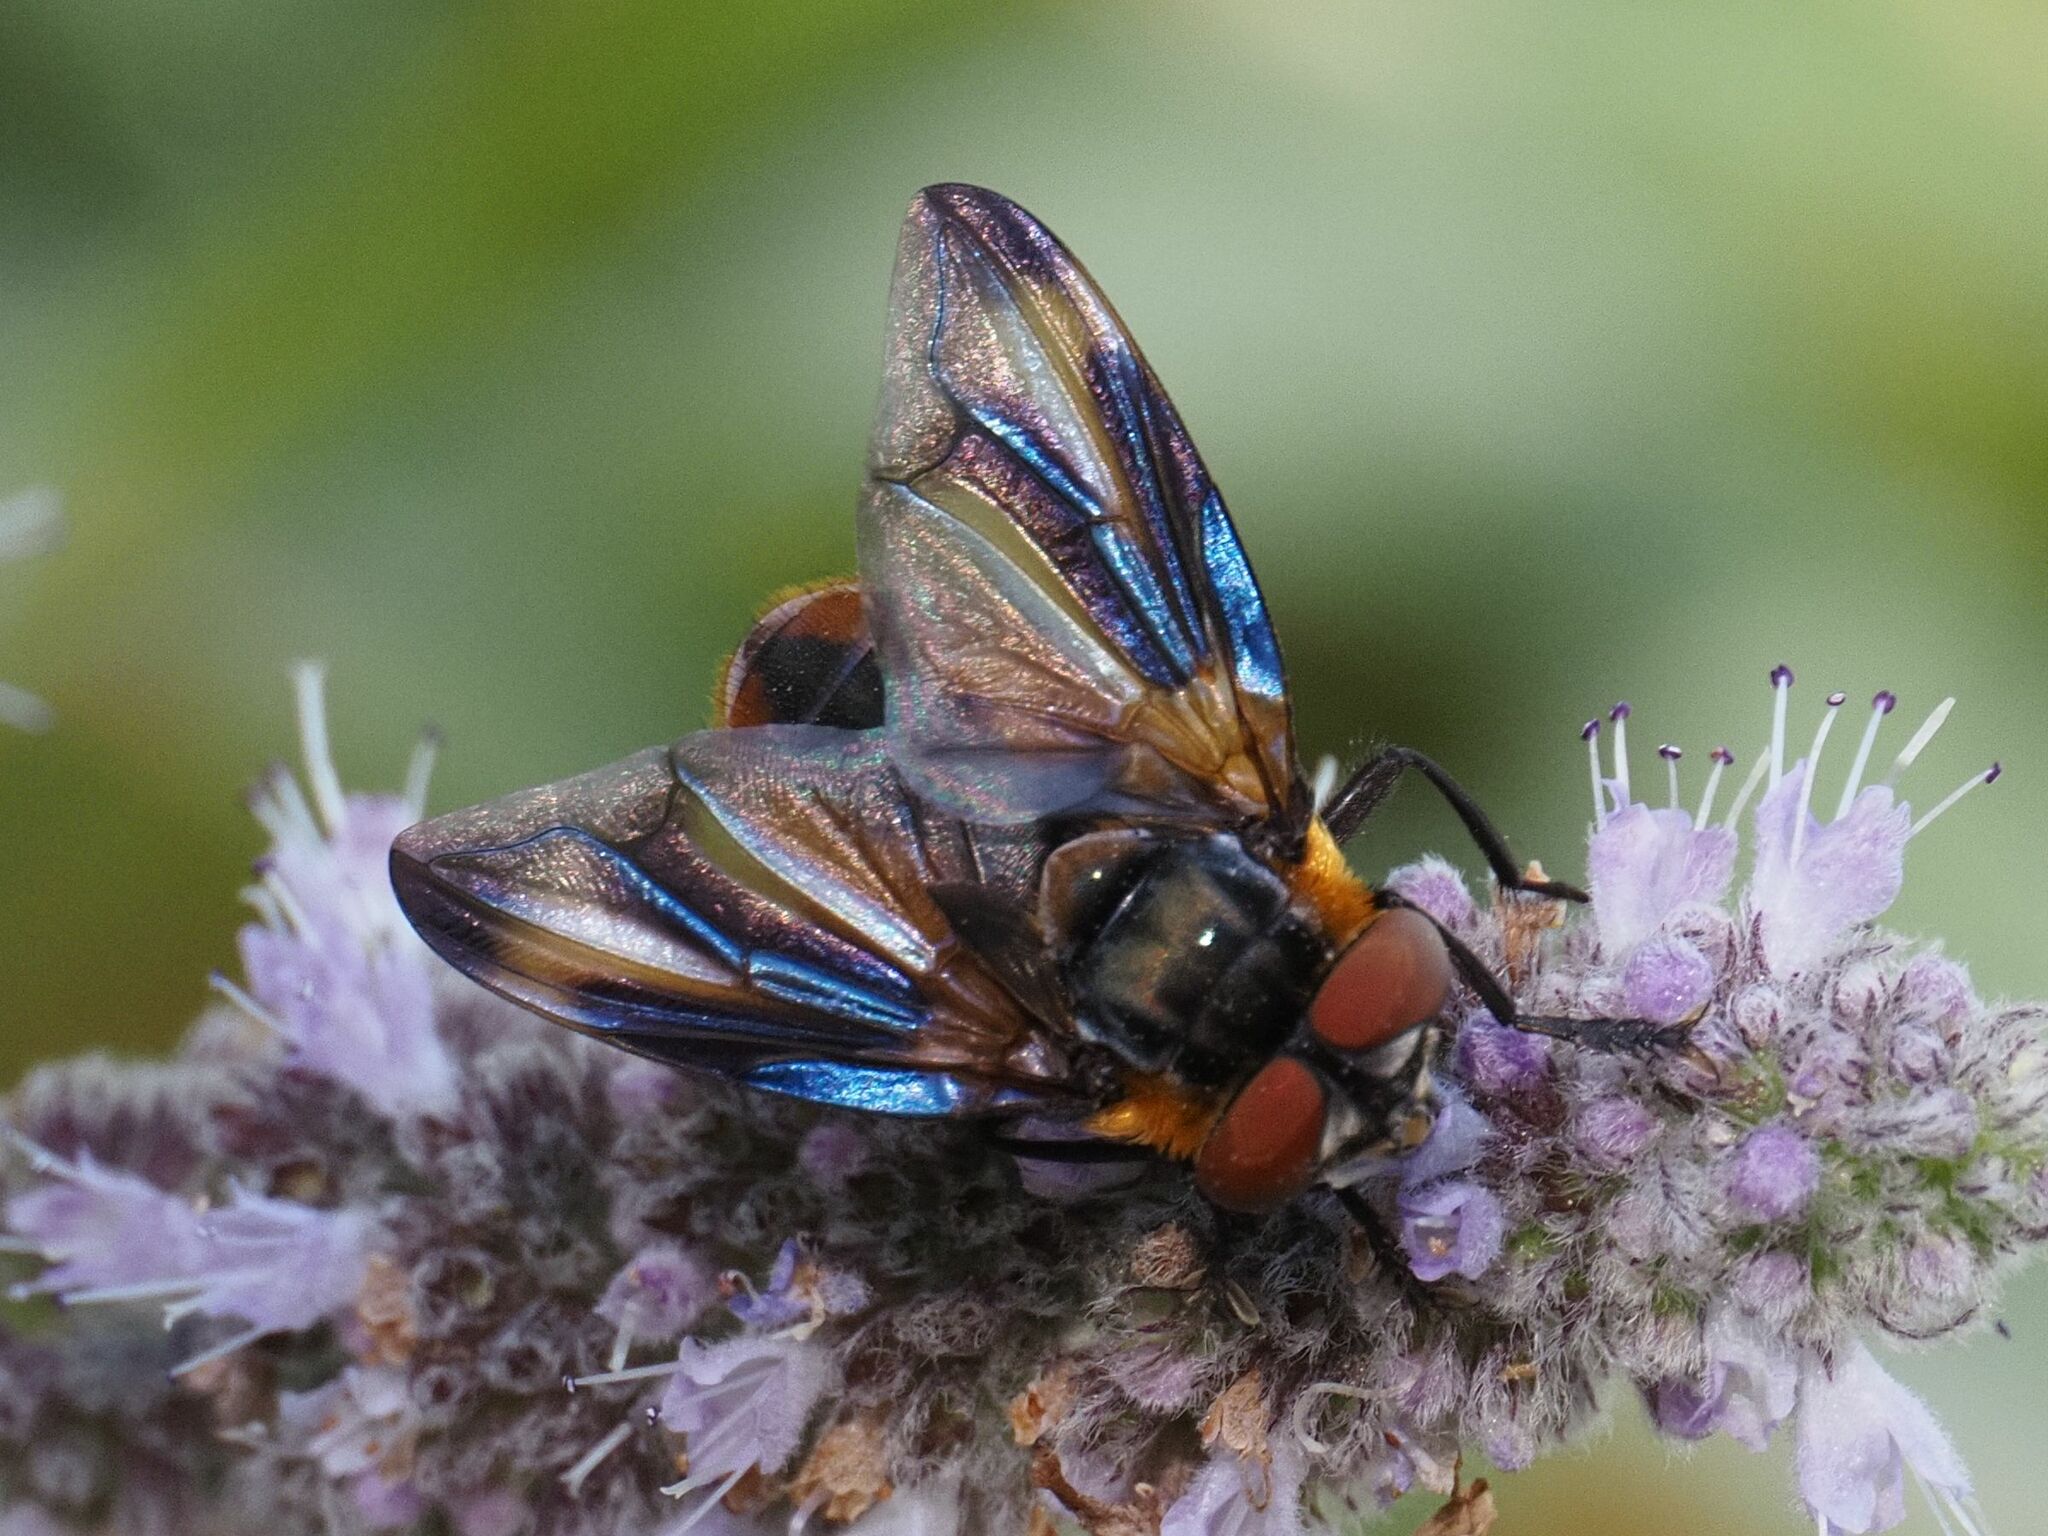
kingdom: Animalia
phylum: Arthropoda
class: Insecta
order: Diptera
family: Tachinidae
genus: Phasia
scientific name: Phasia hemiptera
